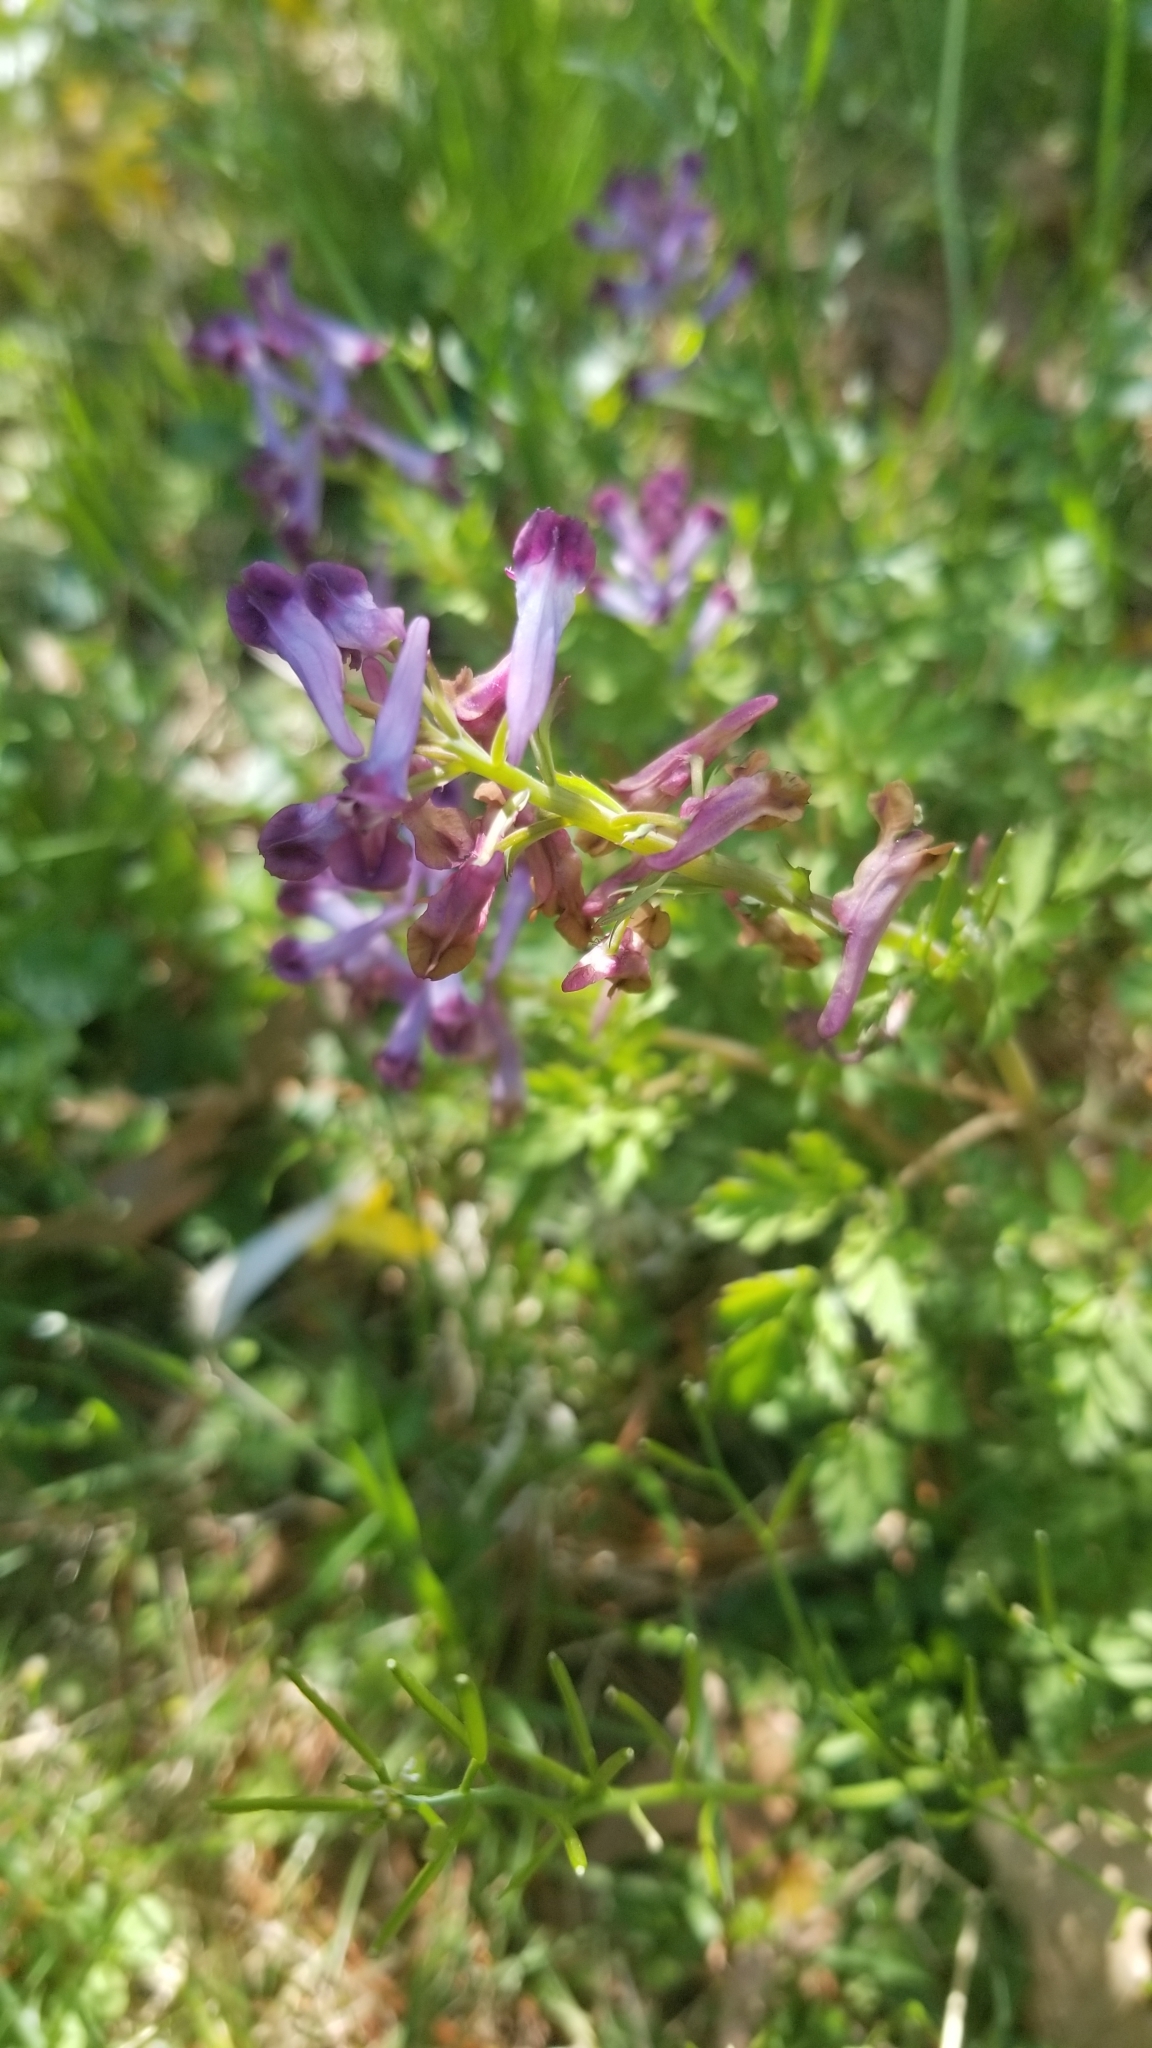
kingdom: Plantae
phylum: Tracheophyta
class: Magnoliopsida
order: Ranunculales
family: Papaveraceae
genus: Corydalis
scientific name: Corydalis incisa
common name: Incised fumewort
